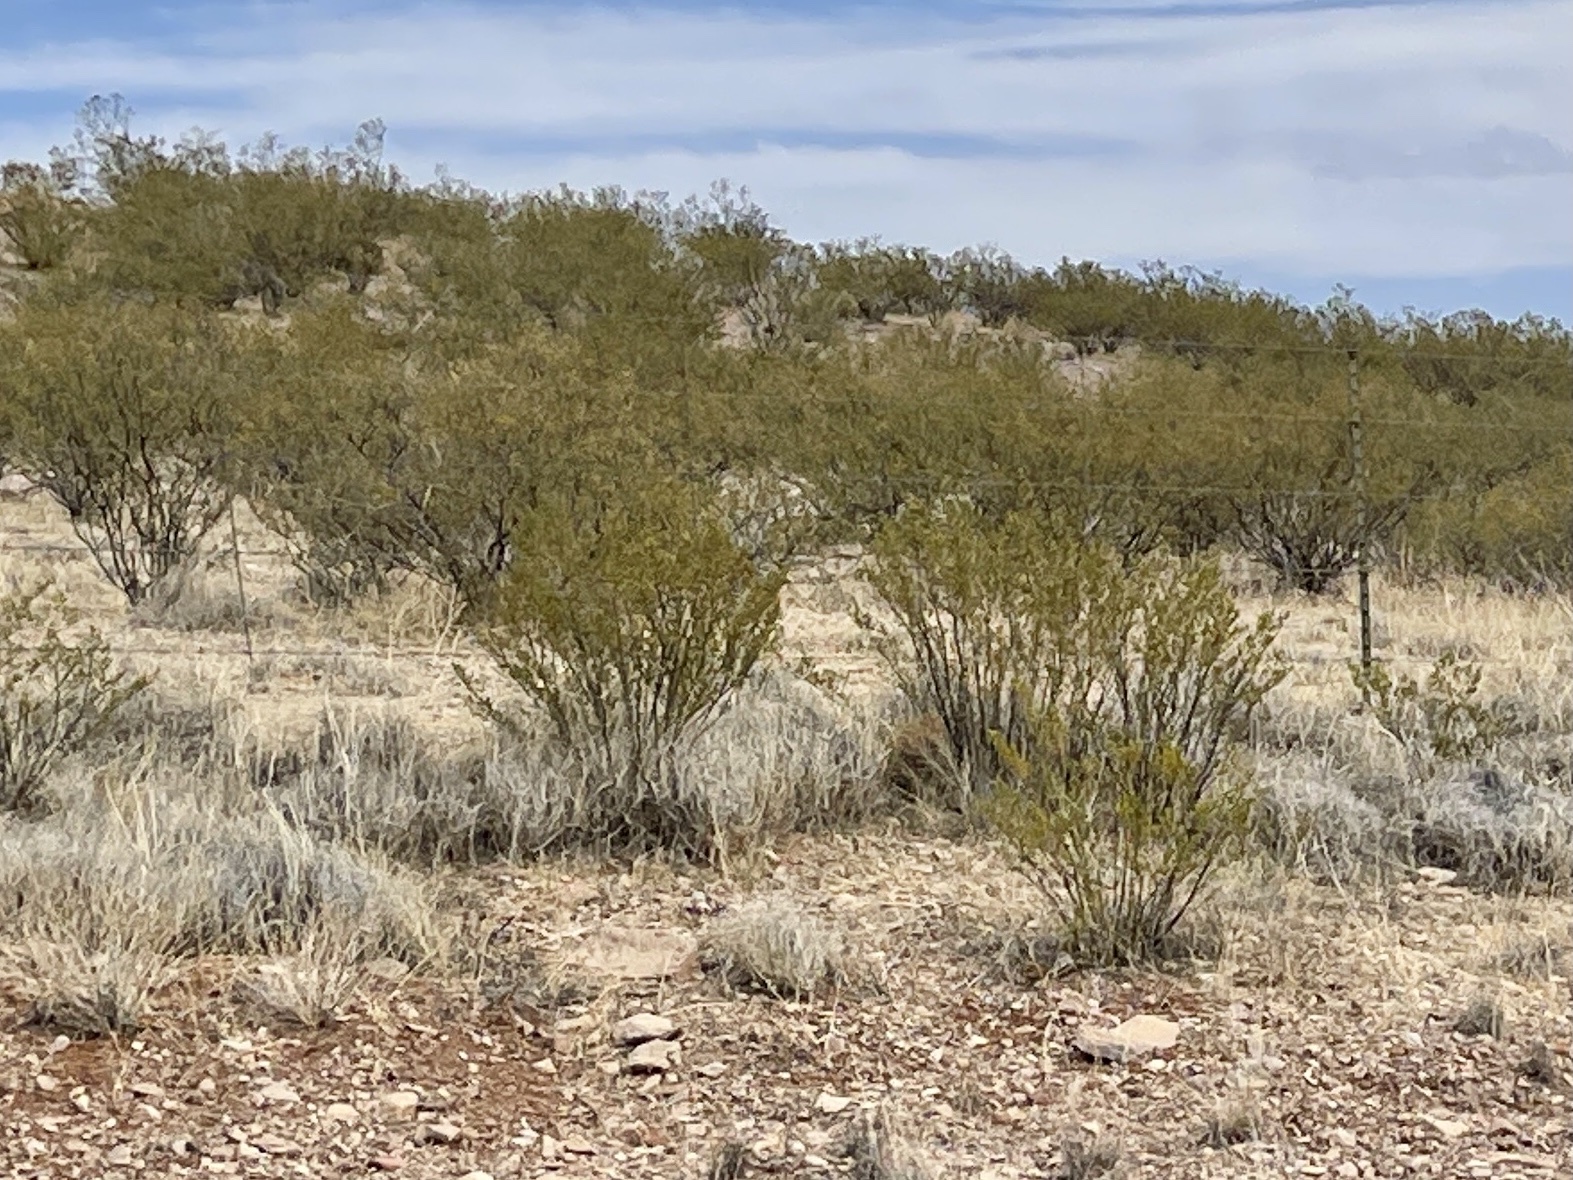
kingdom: Plantae
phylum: Tracheophyta
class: Magnoliopsida
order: Zygophyllales
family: Zygophyllaceae
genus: Larrea
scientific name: Larrea tridentata
